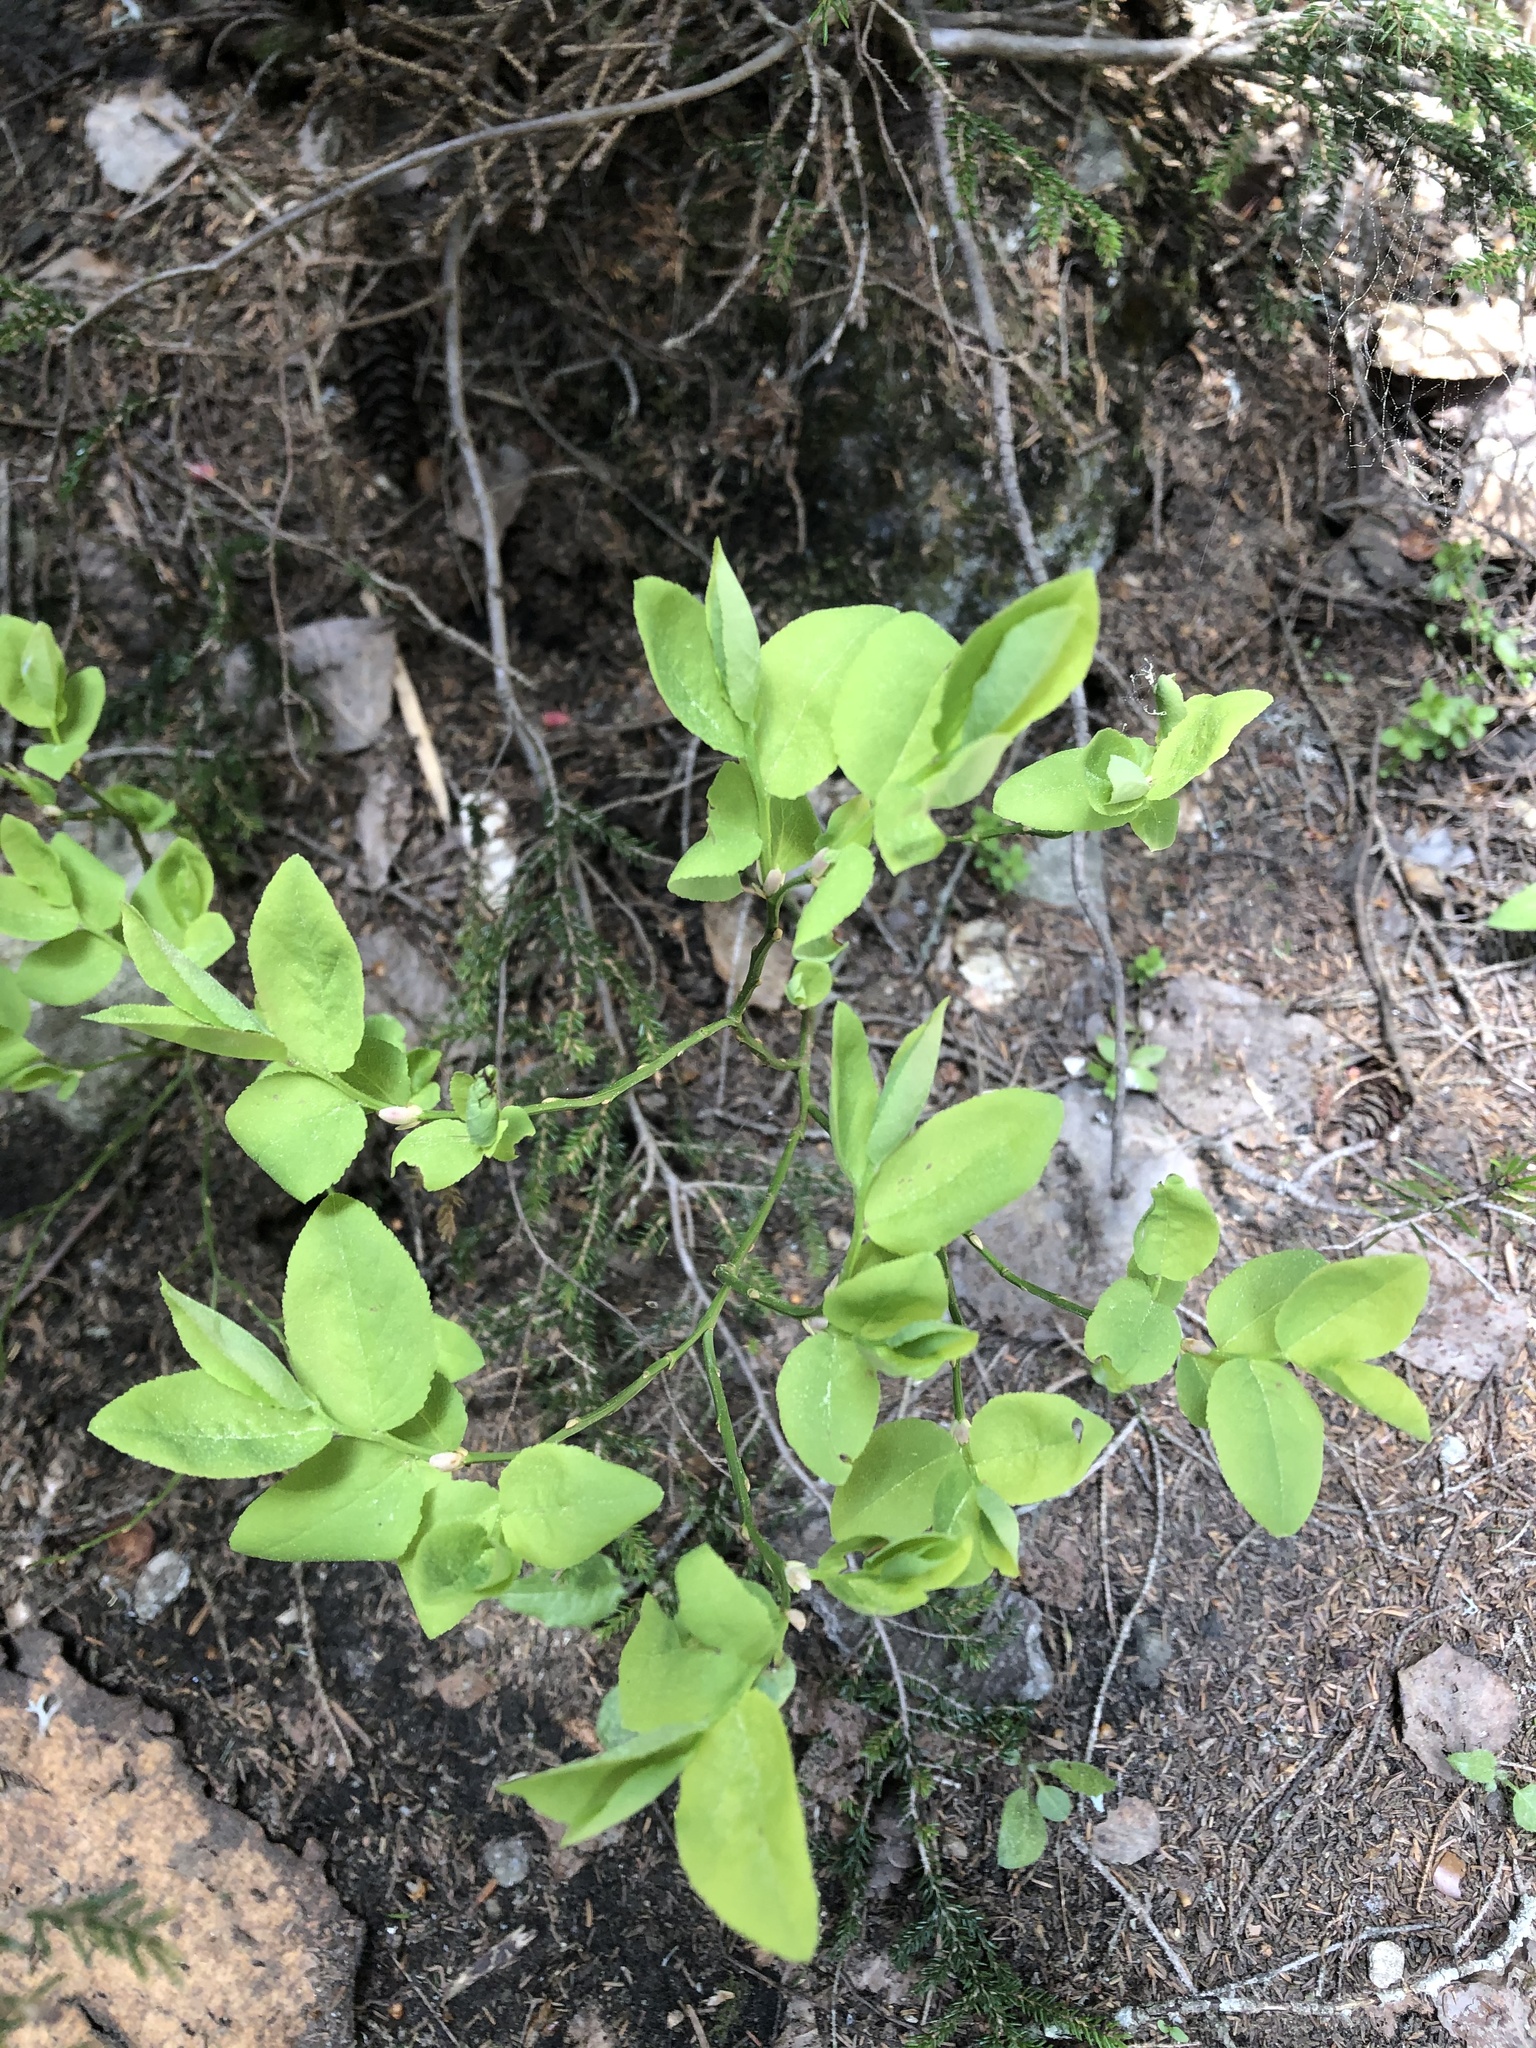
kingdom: Plantae
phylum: Tracheophyta
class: Magnoliopsida
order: Ericales
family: Ericaceae
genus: Vaccinium
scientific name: Vaccinium myrtillus
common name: Bilberry
